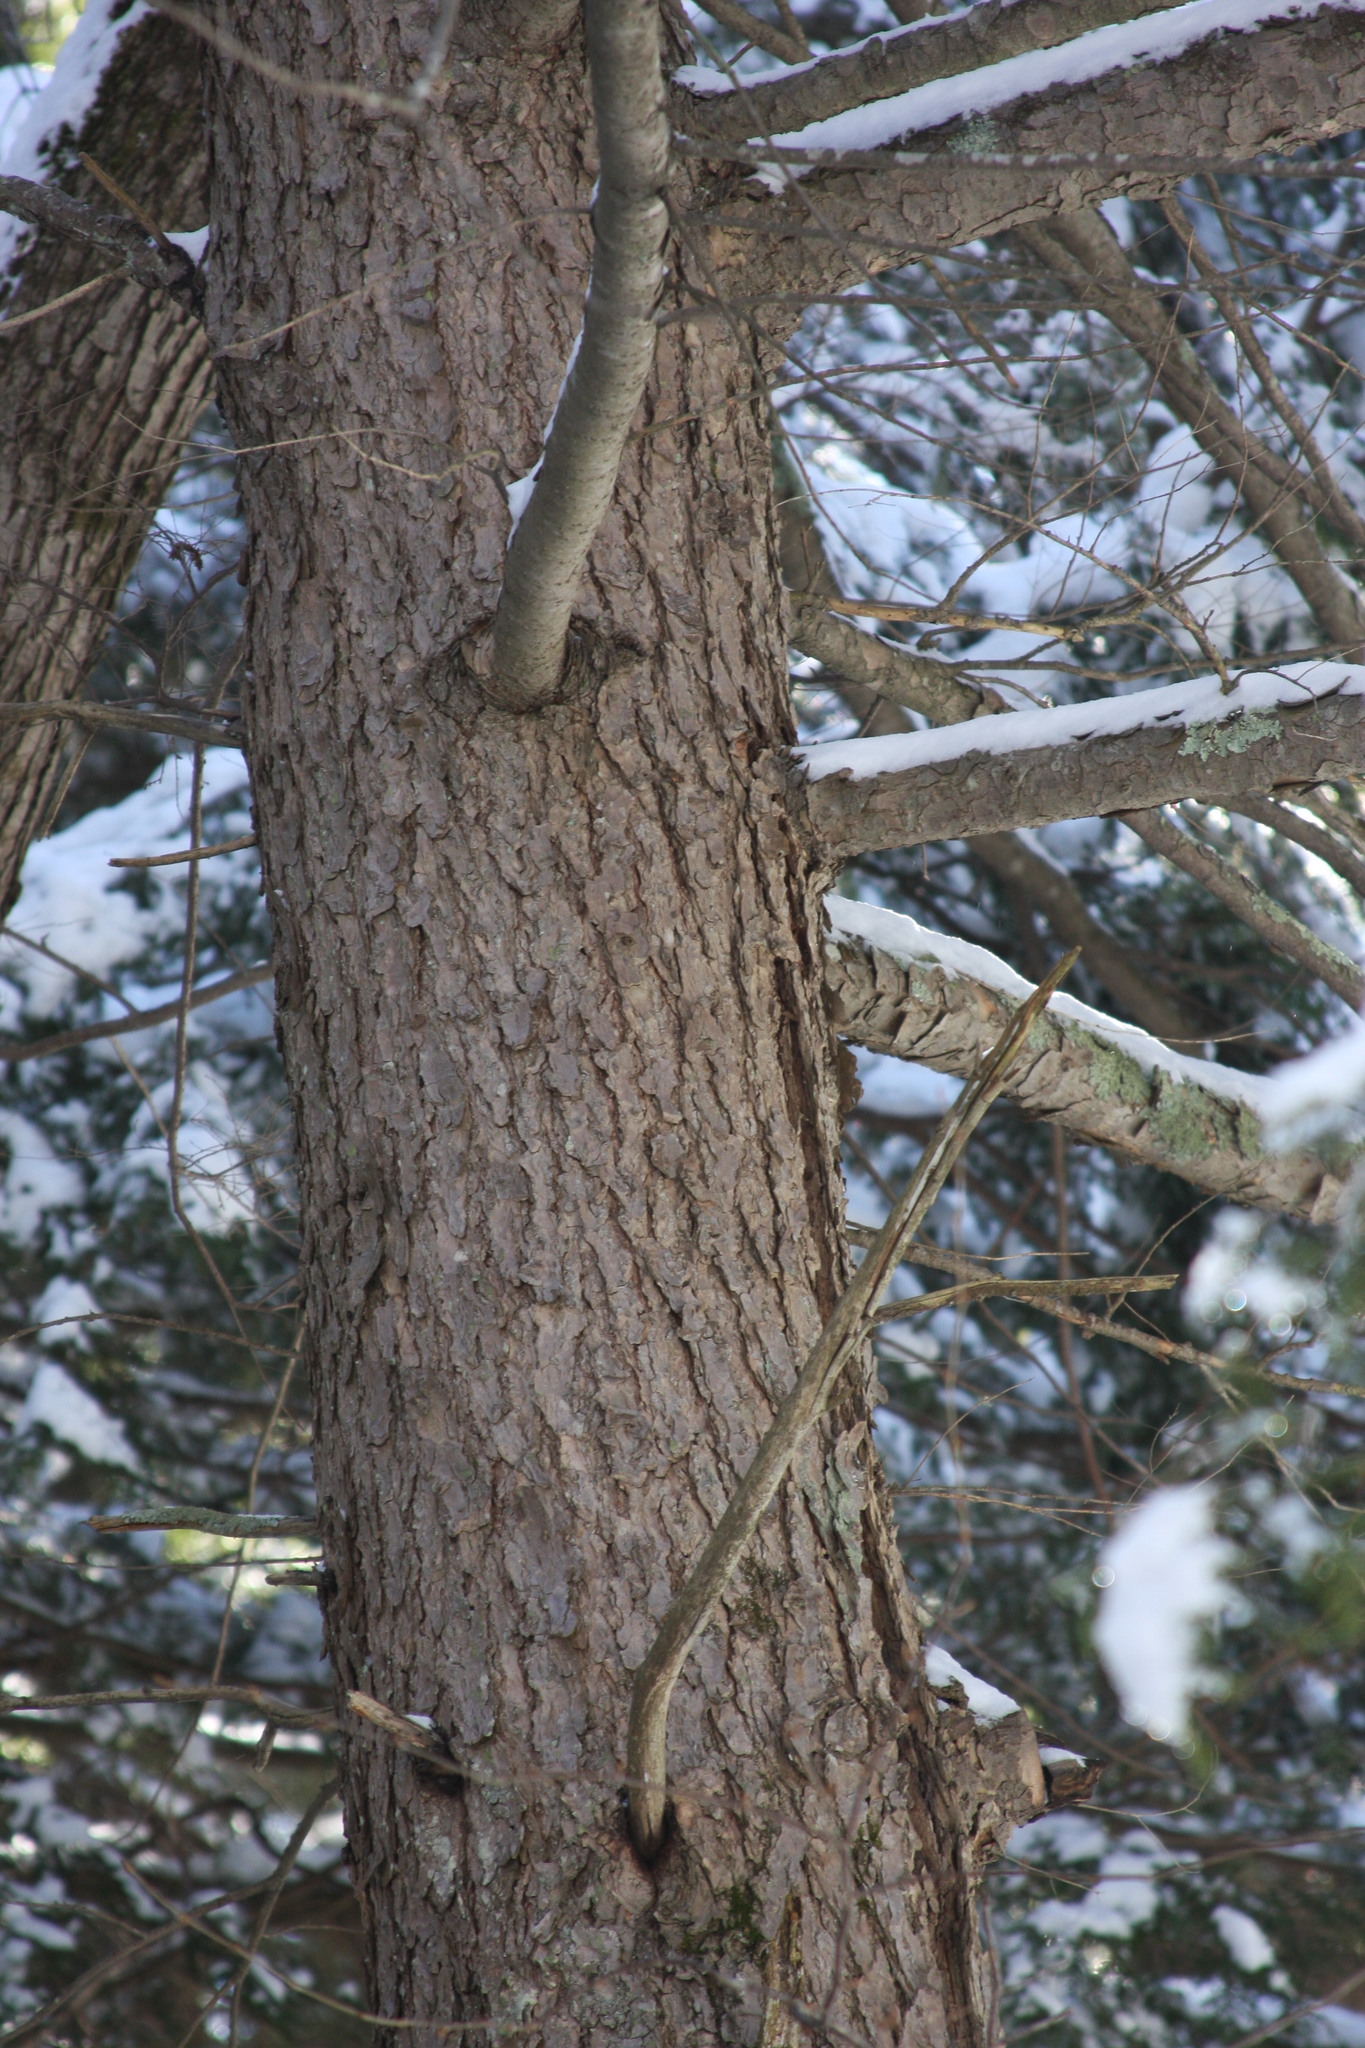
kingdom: Plantae
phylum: Tracheophyta
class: Pinopsida
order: Pinales
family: Pinaceae
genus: Tsuga
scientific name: Tsuga canadensis
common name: Eastern hemlock
